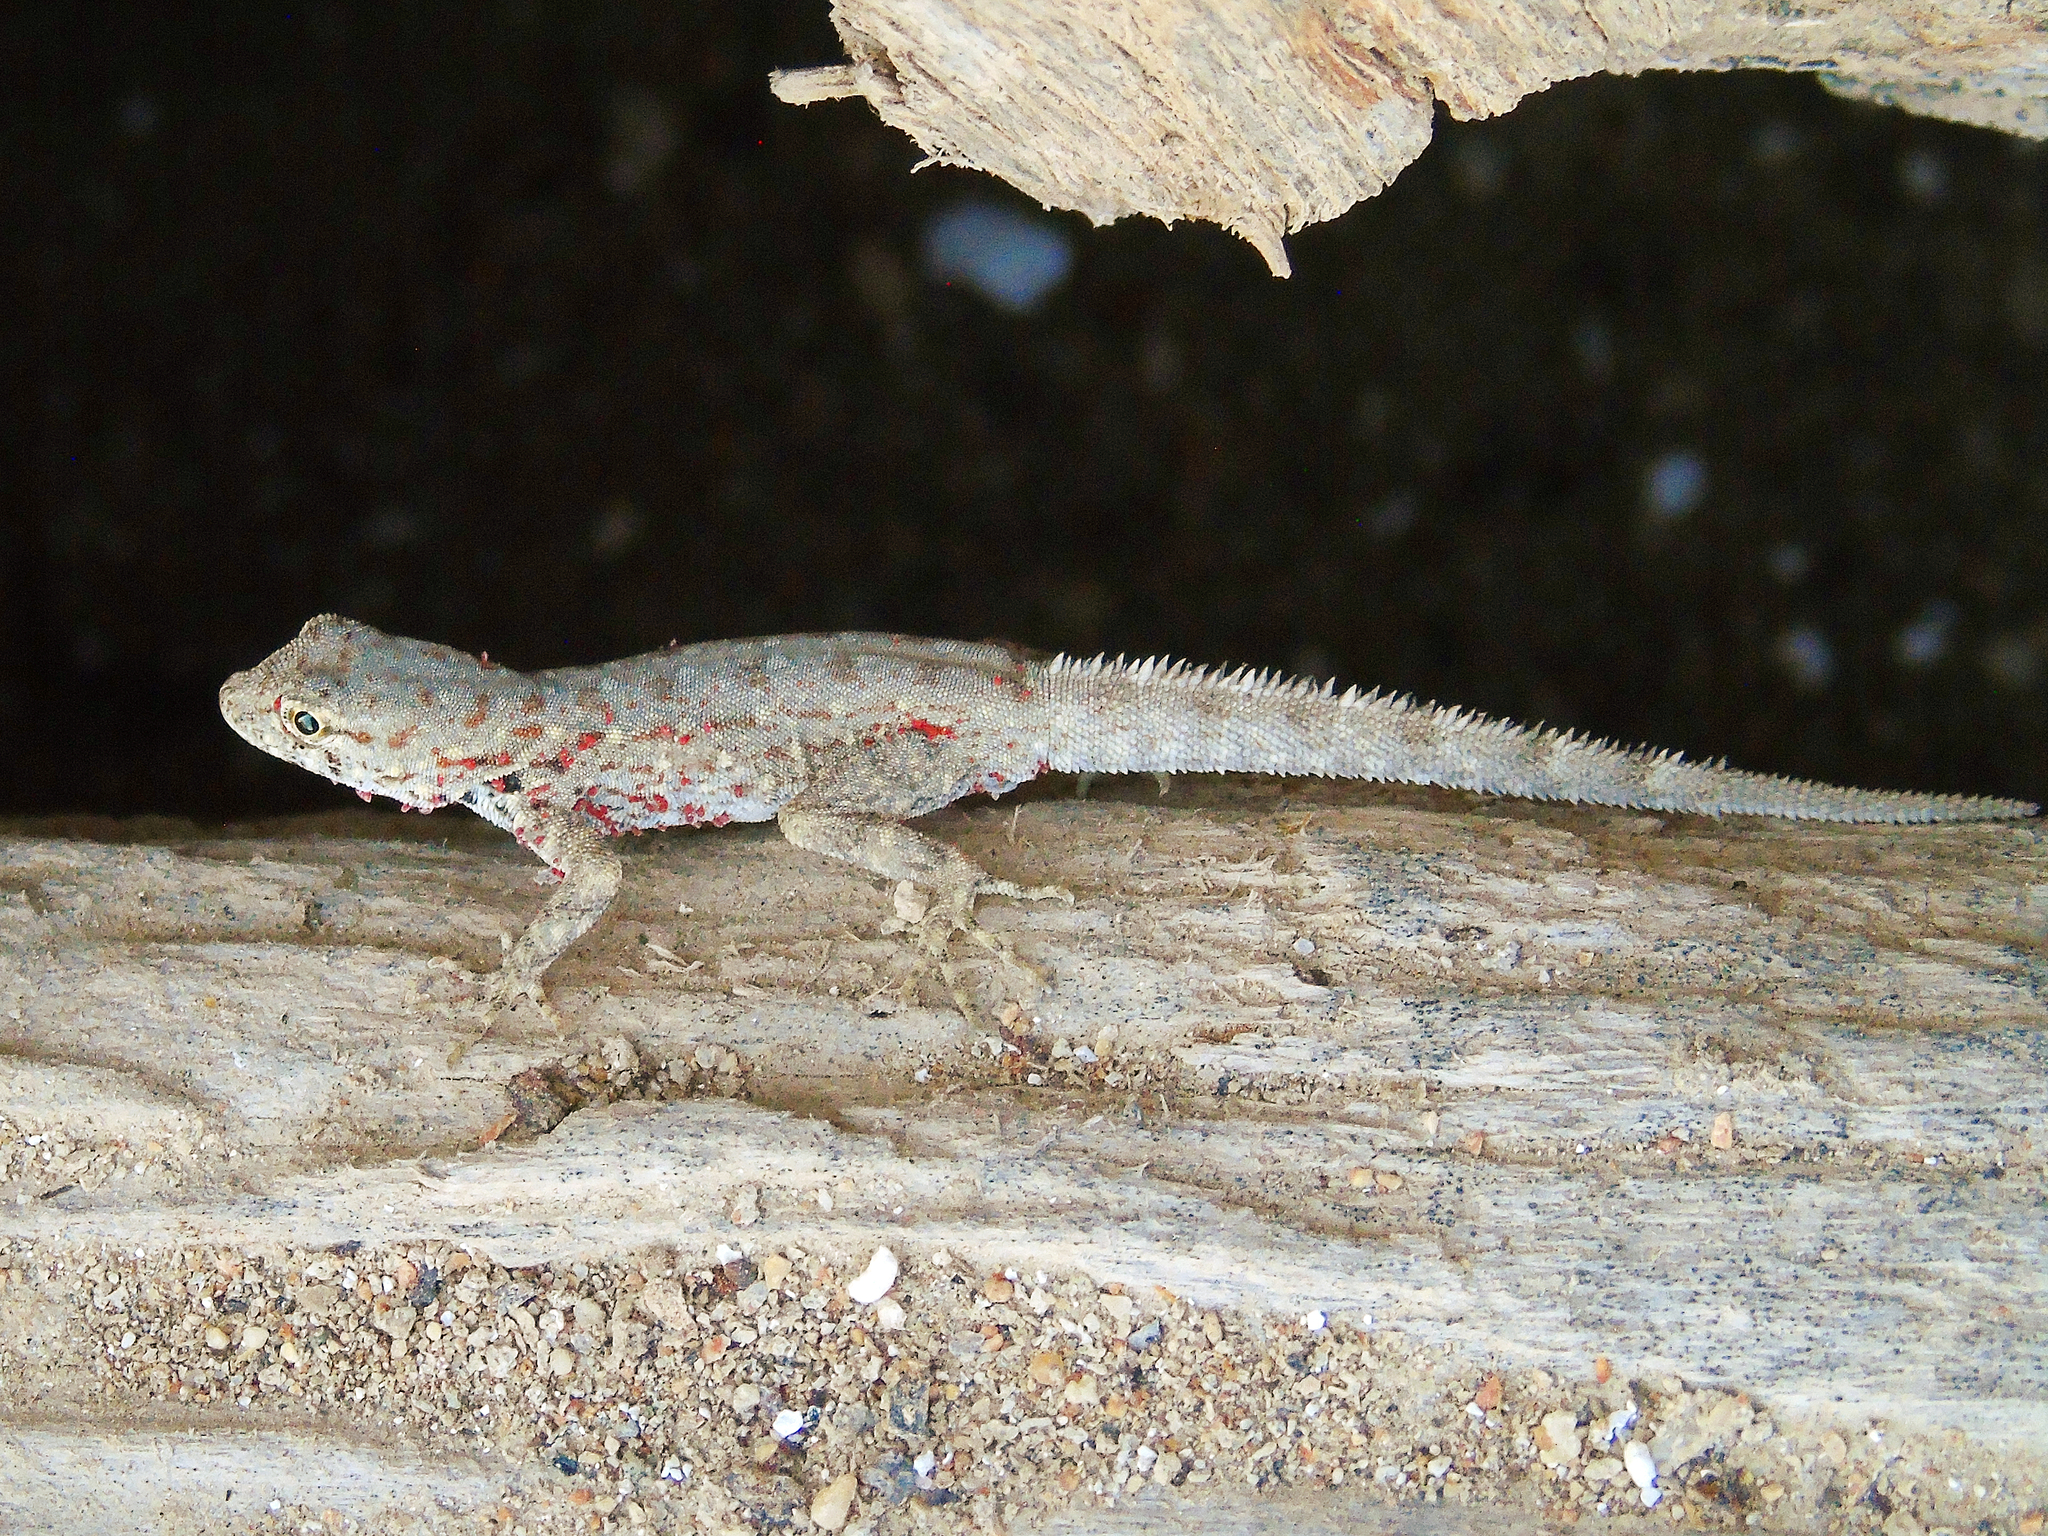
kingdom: Animalia
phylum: Chordata
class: Squamata
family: Sphaerodactylidae
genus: Pristurus
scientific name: Pristurus rupestris
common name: Blanford’s semaphore gecko
